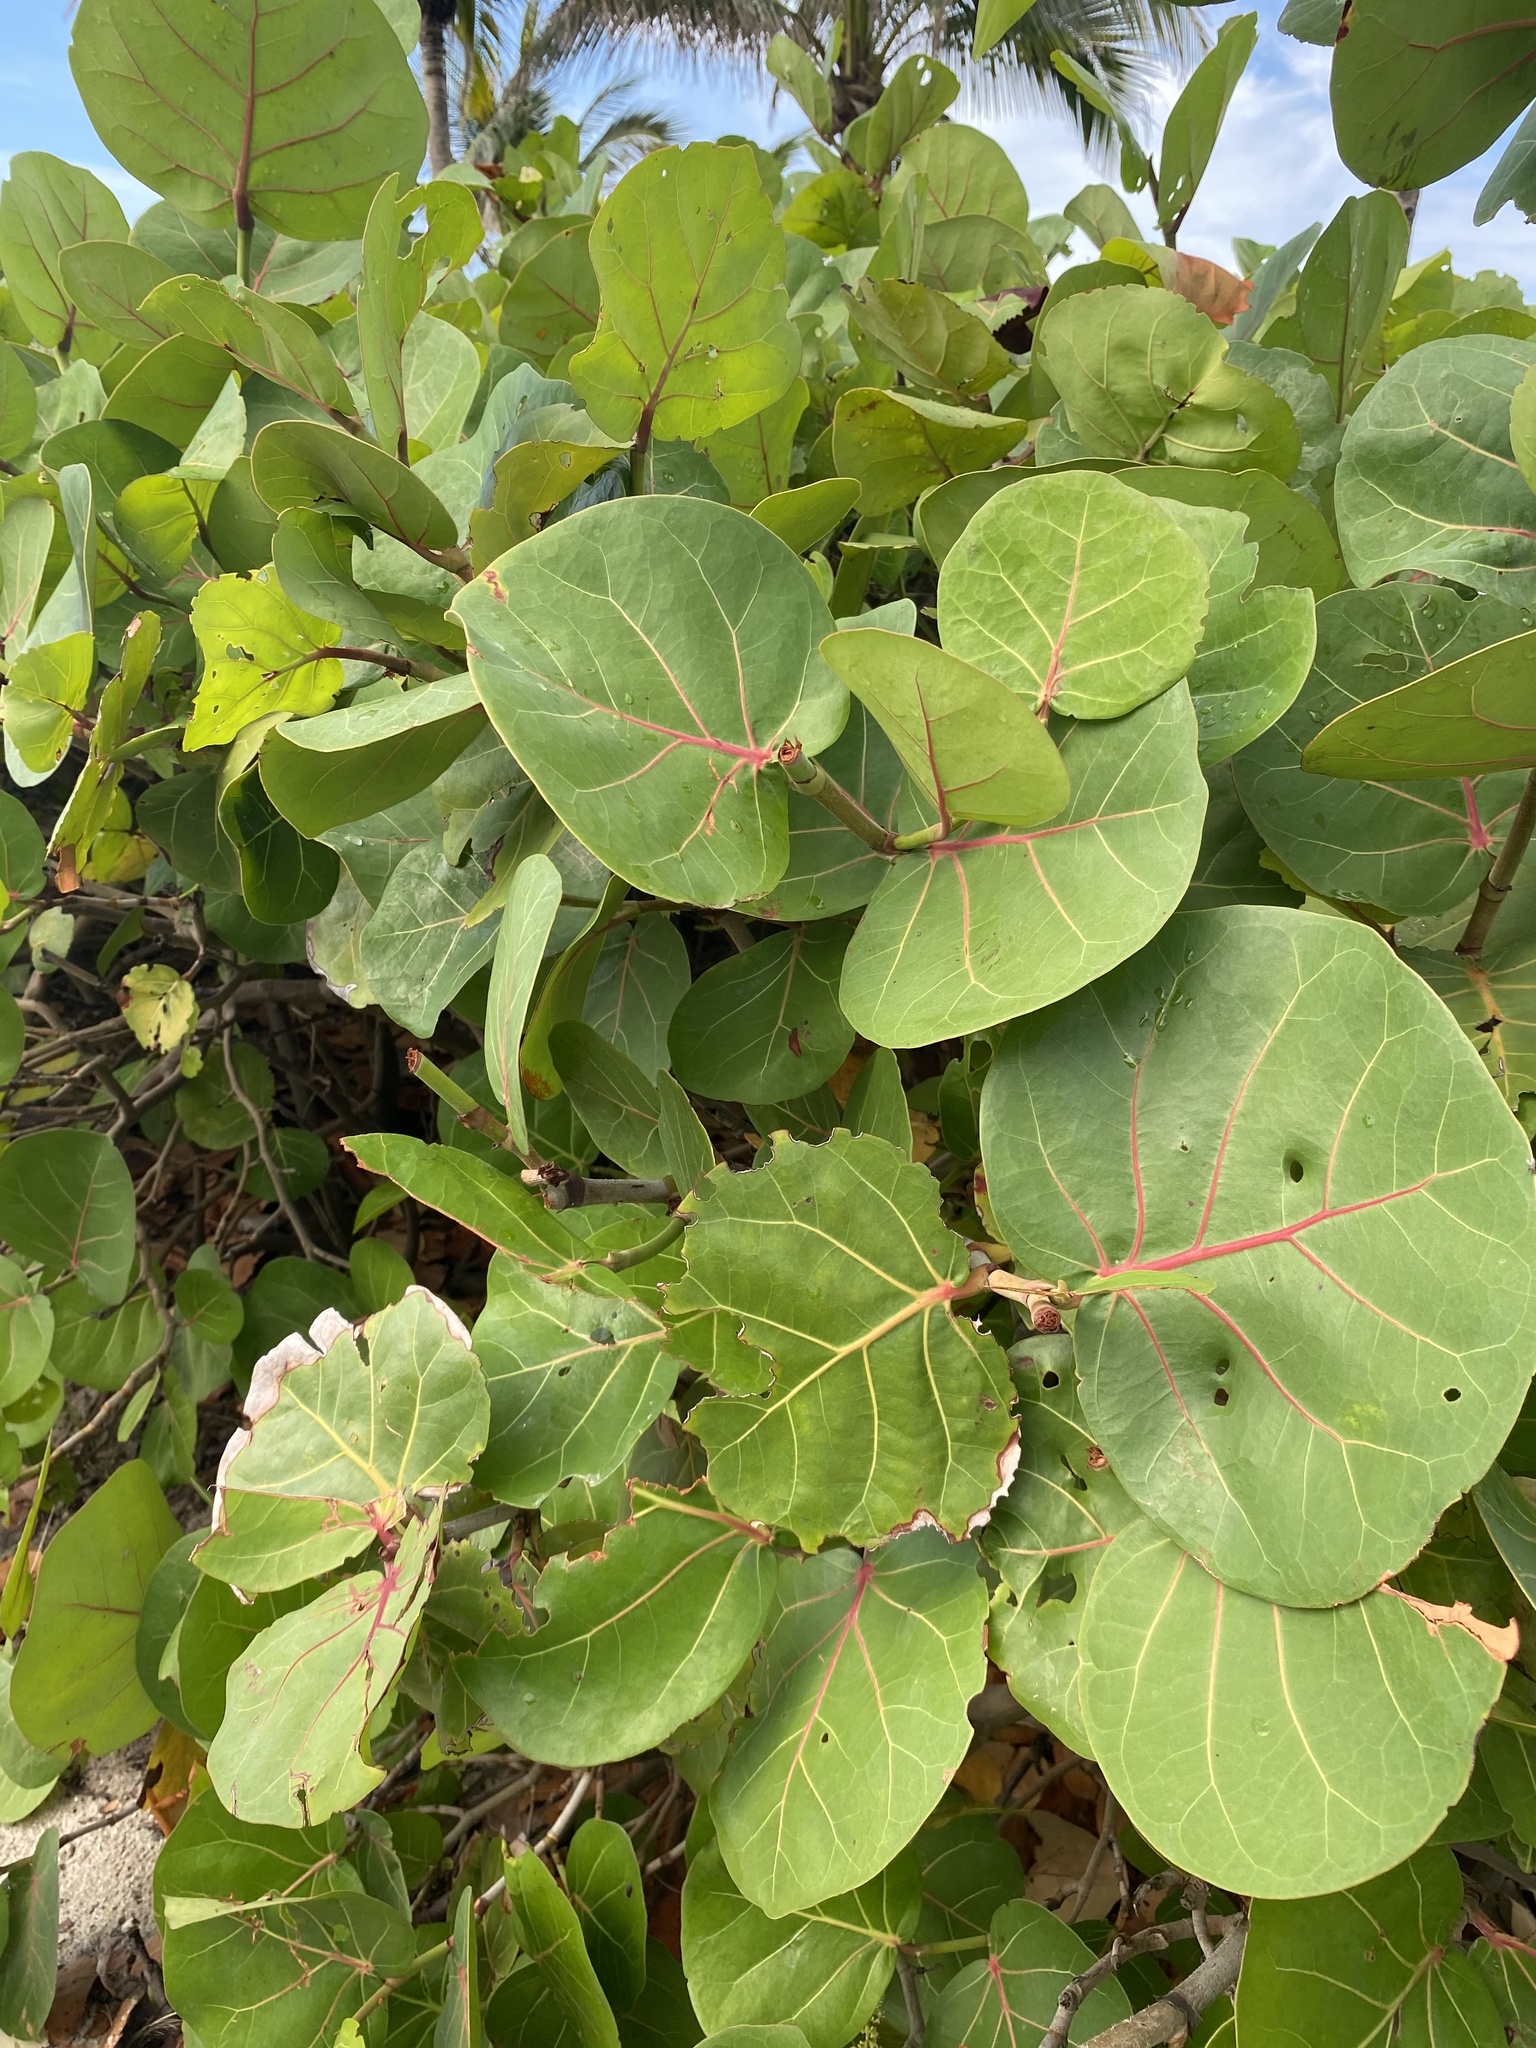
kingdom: Plantae
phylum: Tracheophyta
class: Magnoliopsida
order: Caryophyllales
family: Polygonaceae
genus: Coccoloba
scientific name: Coccoloba uvifera
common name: Seagrape
